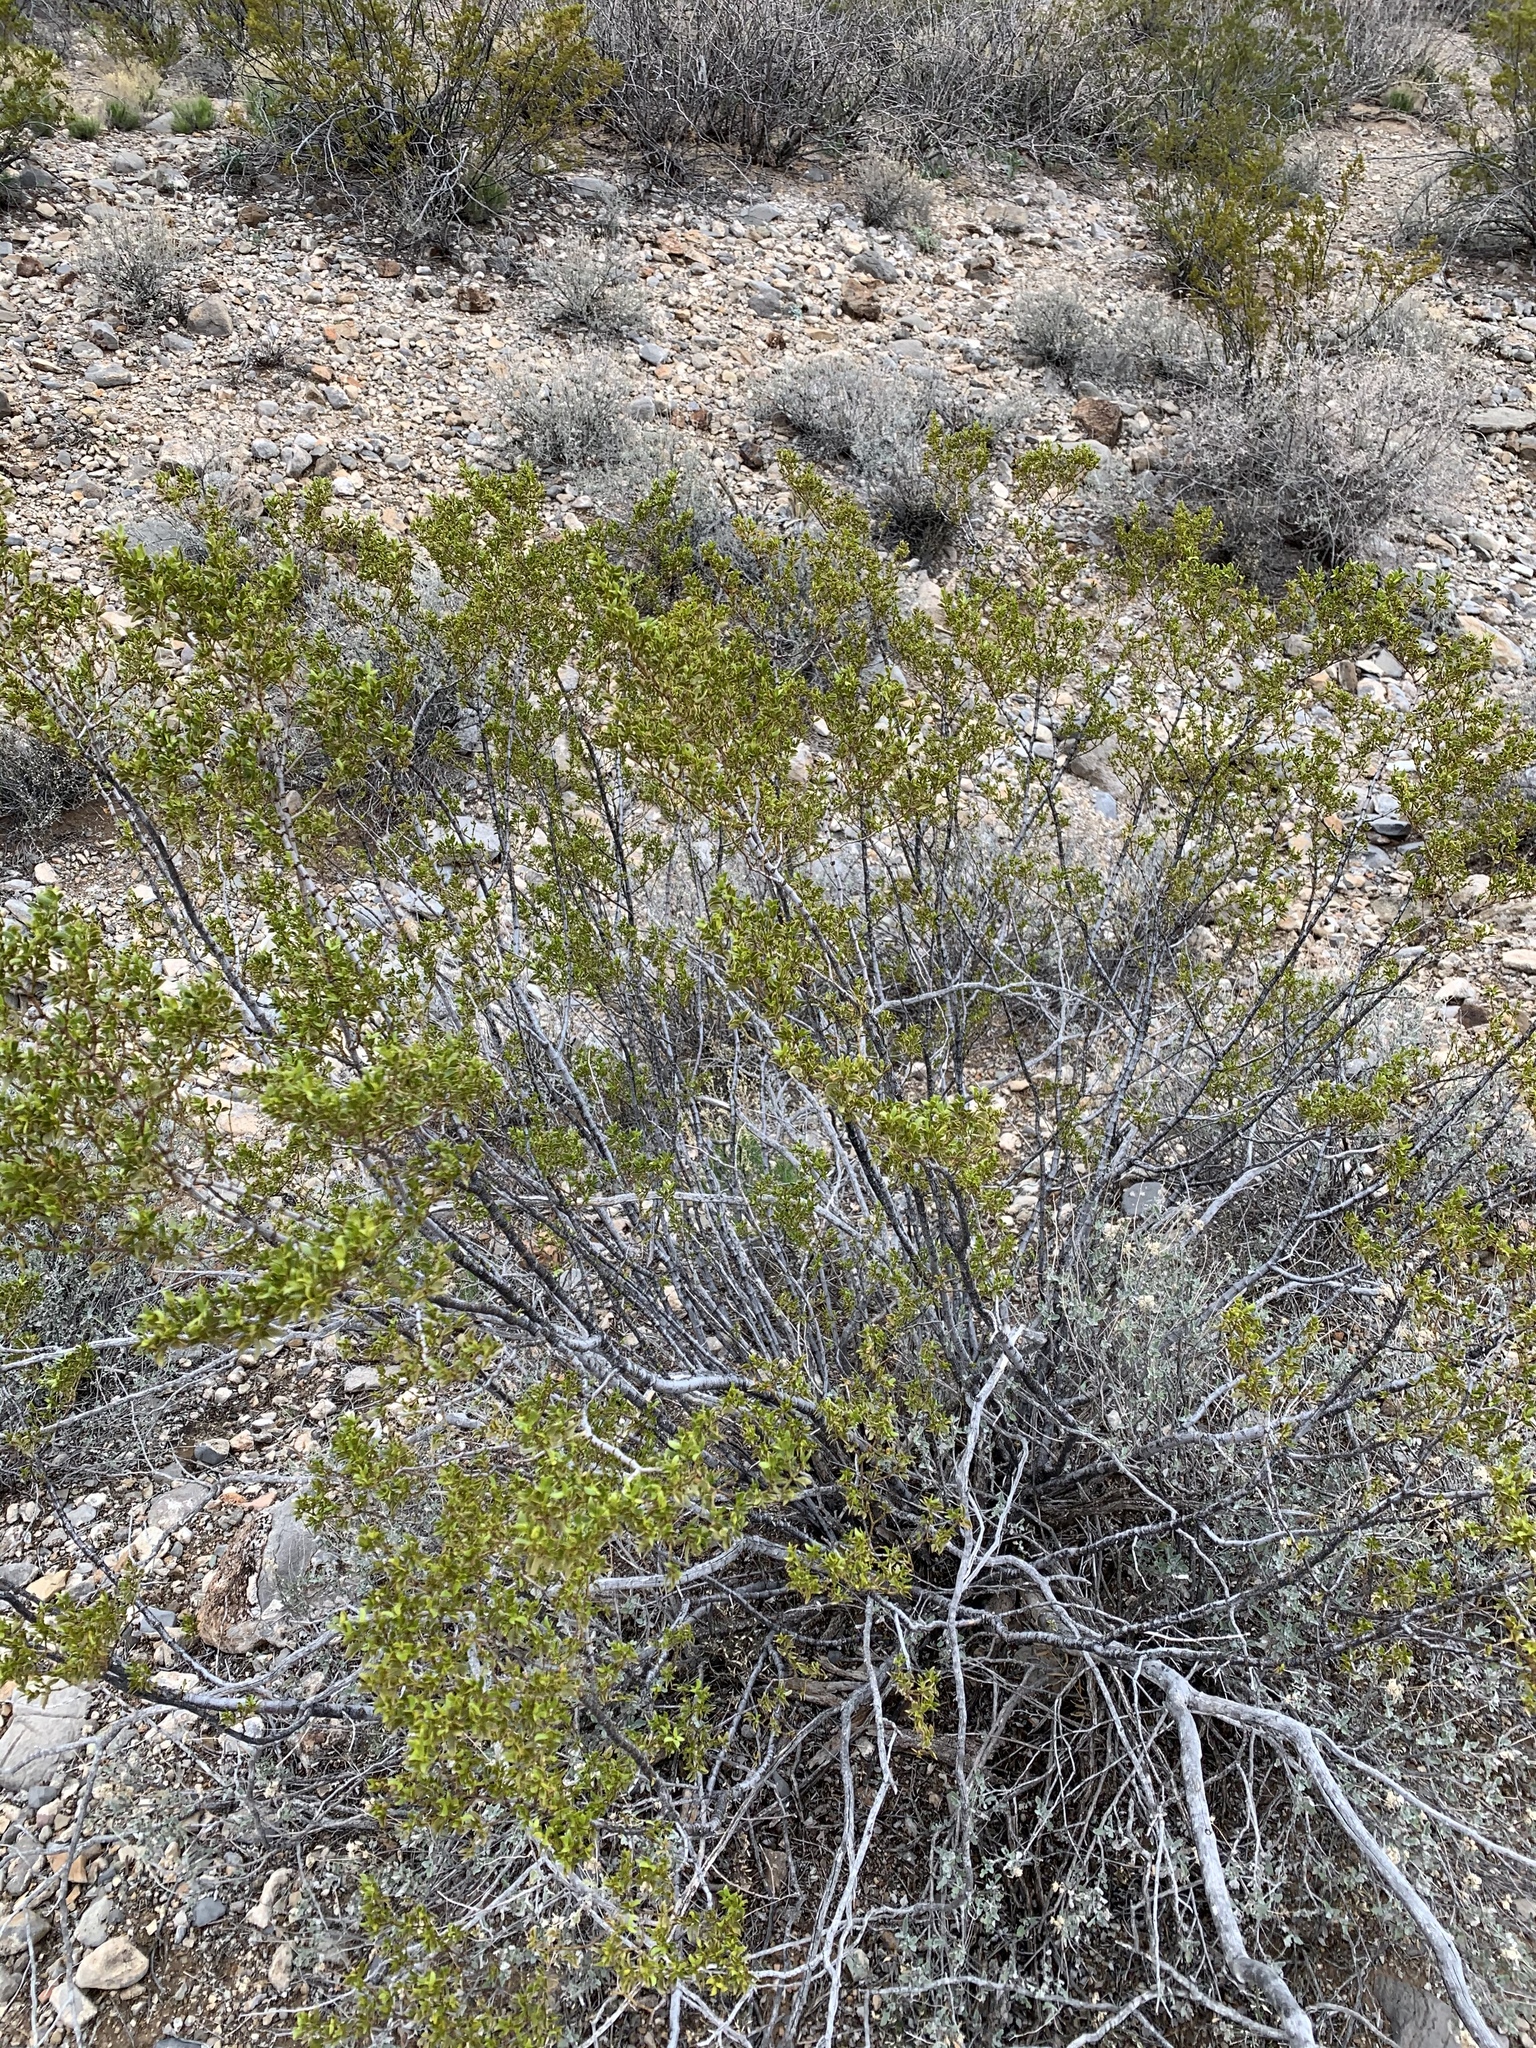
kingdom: Plantae
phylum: Tracheophyta
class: Magnoliopsida
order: Zygophyllales
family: Zygophyllaceae
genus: Larrea
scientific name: Larrea tridentata
